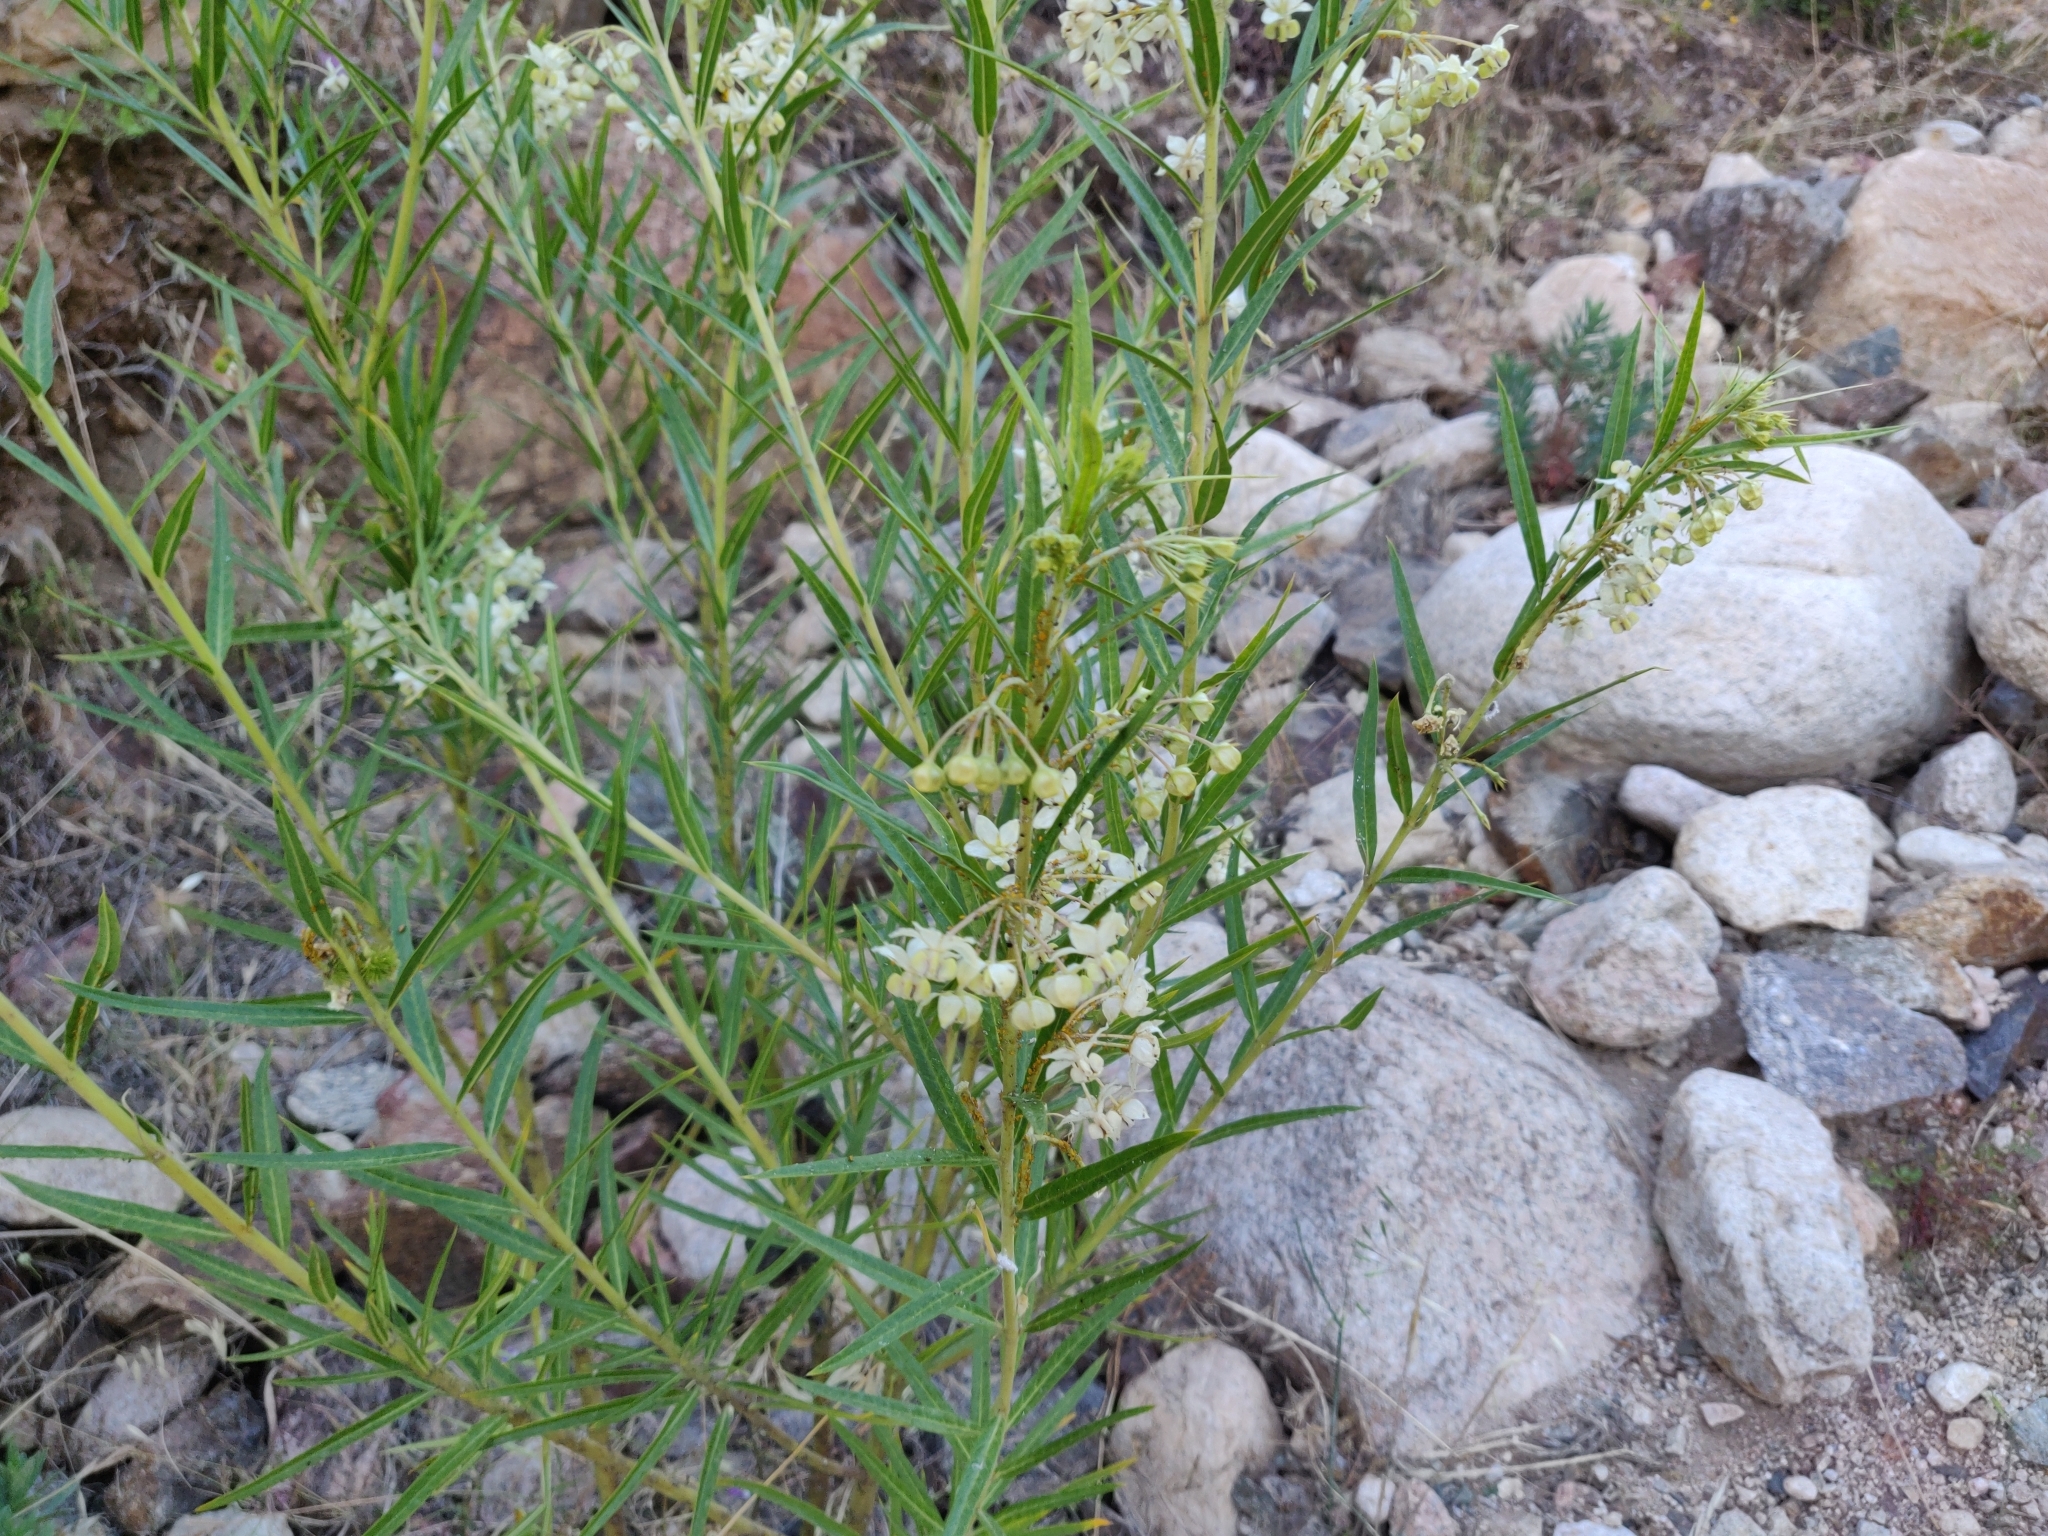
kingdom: Plantae
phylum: Tracheophyta
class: Magnoliopsida
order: Gentianales
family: Apocynaceae
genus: Gomphocarpus
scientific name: Gomphocarpus fruticosus
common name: Milkweed
